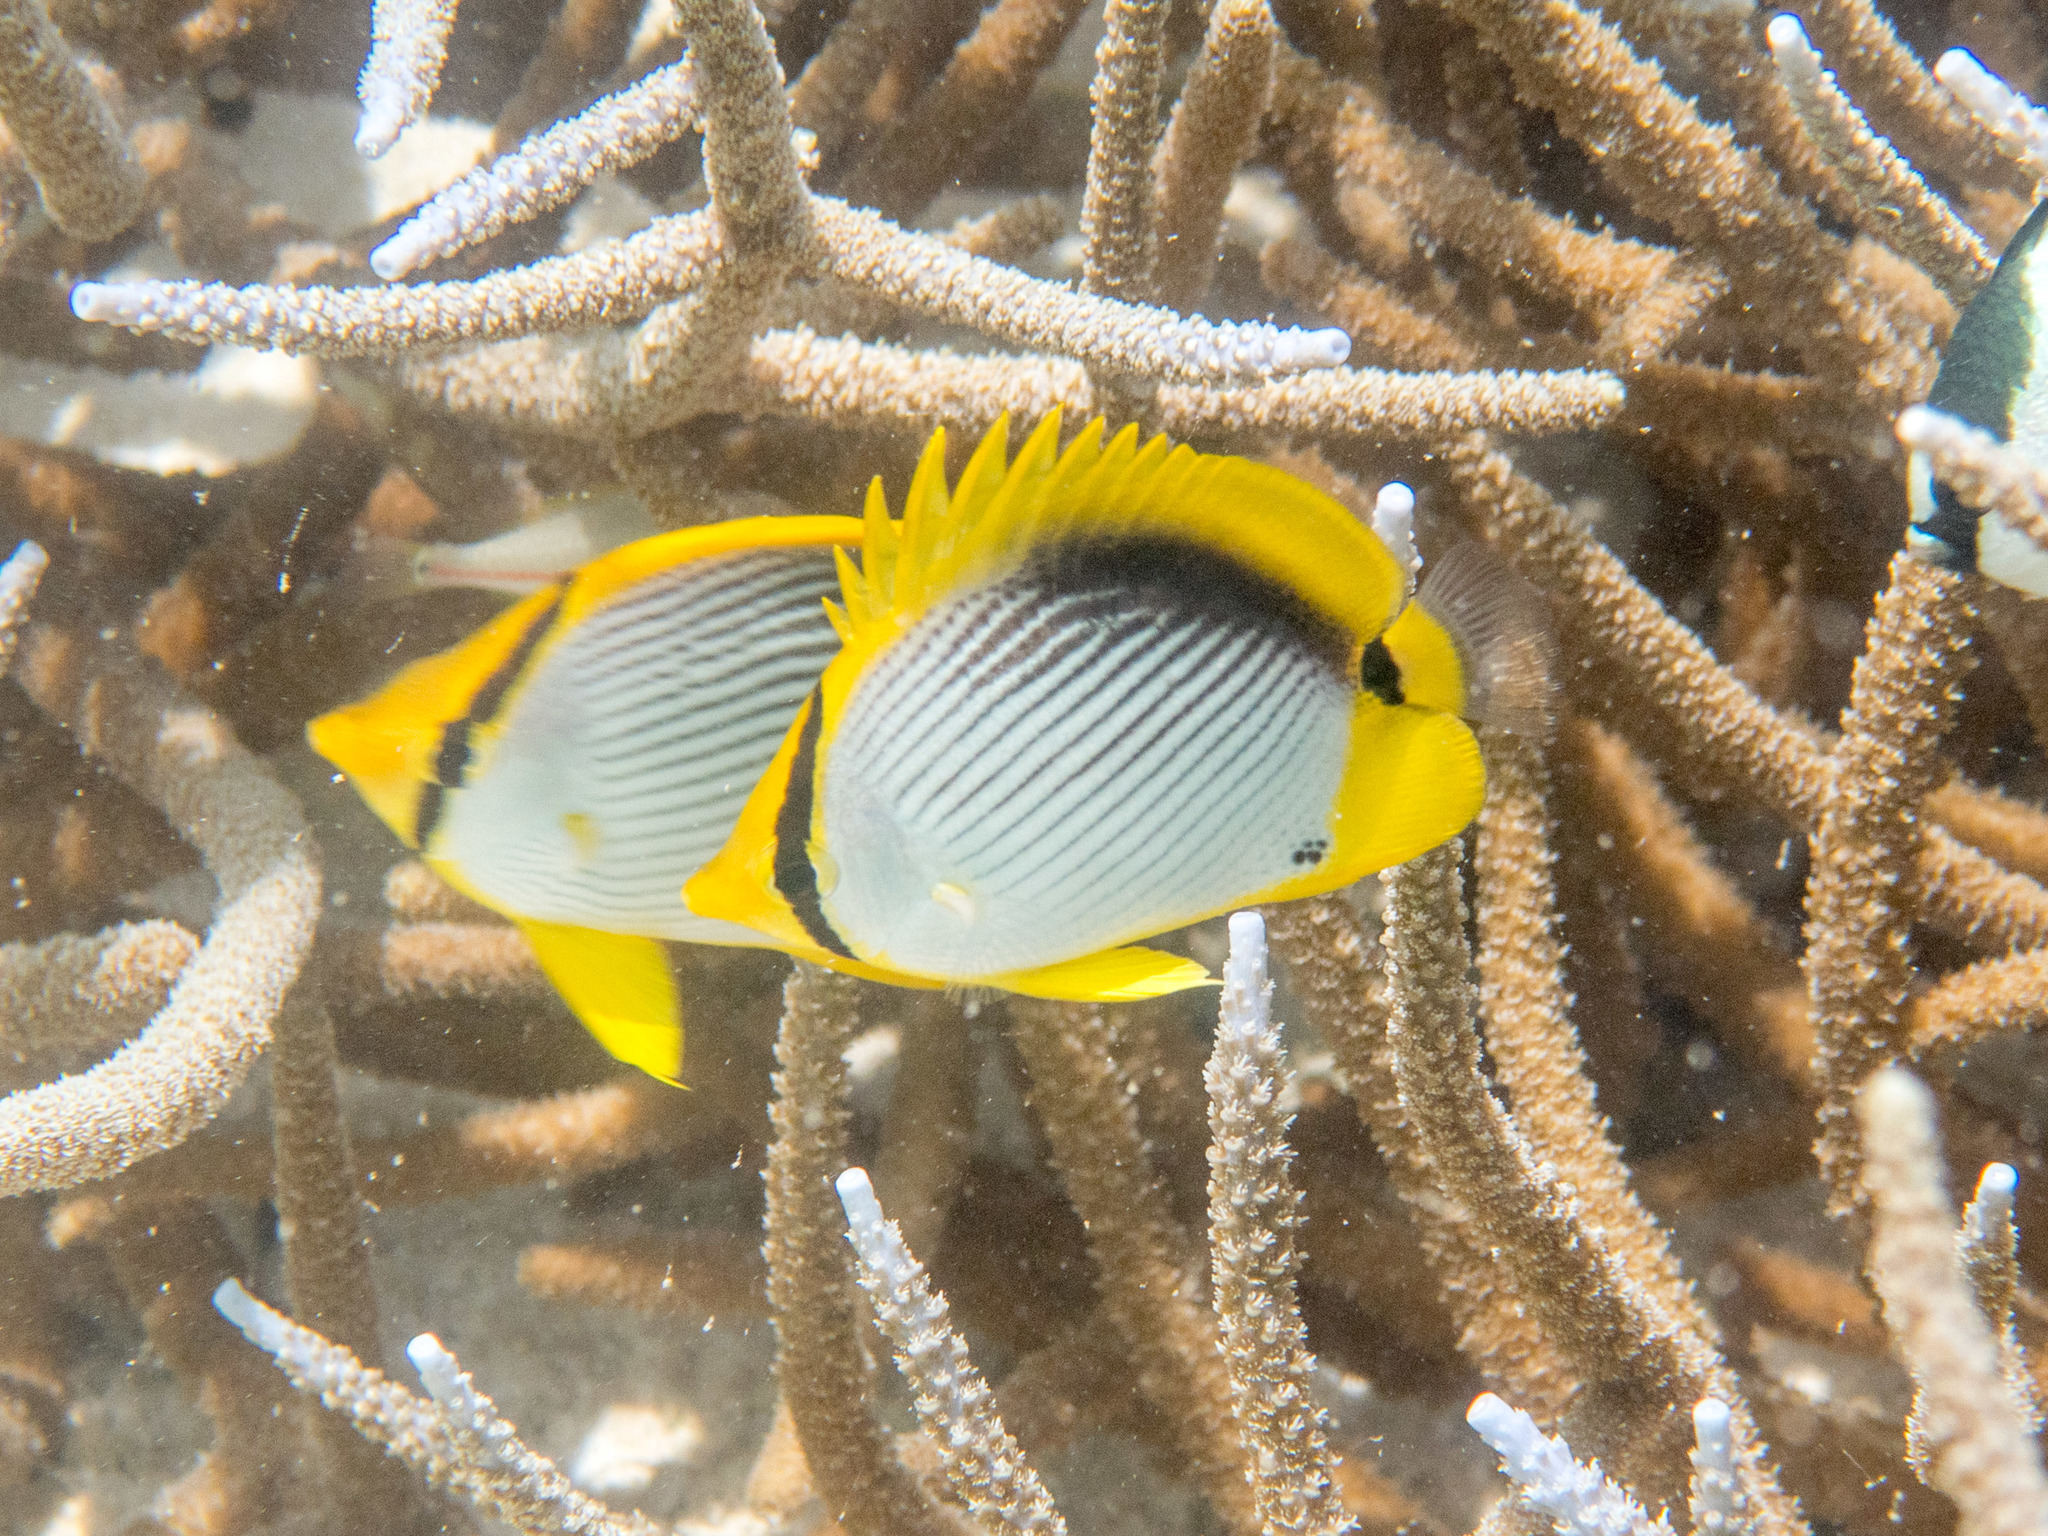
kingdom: Animalia
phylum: Chordata
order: Perciformes
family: Chaetodontidae
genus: Chaetodon
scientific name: Chaetodon melannotus
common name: Blackback butterflyfish
